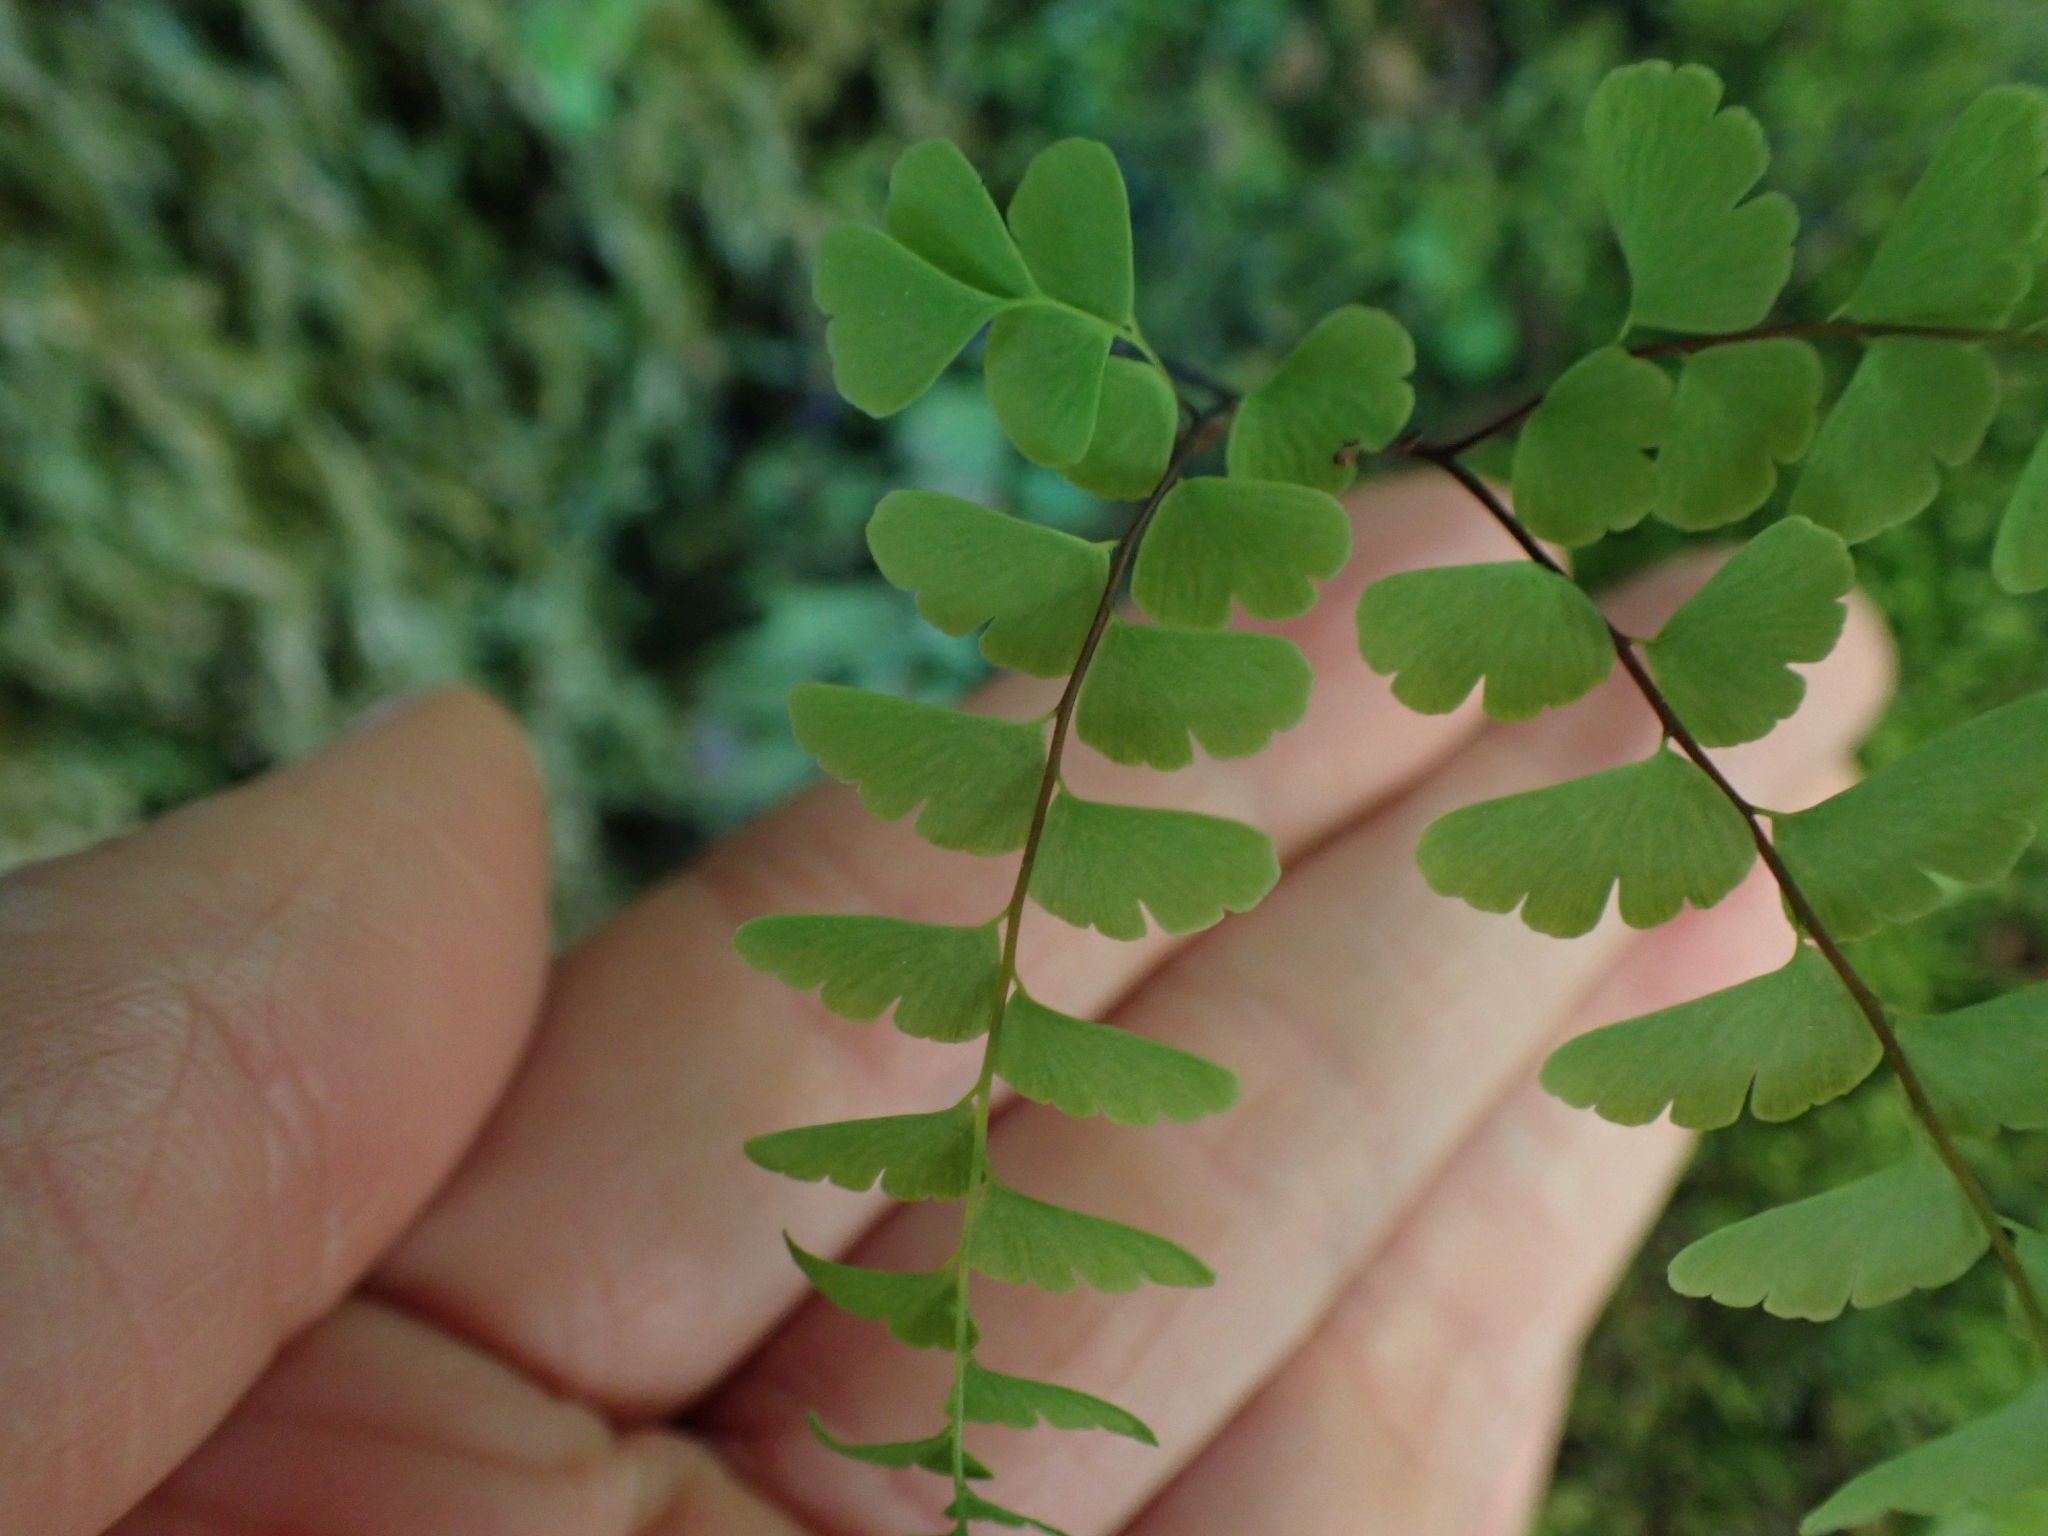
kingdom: Plantae
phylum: Tracheophyta
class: Polypodiopsida
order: Polypodiales
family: Pteridaceae
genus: Adiantum
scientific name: Adiantum aleuticum
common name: Aleutian maidenhair fern
